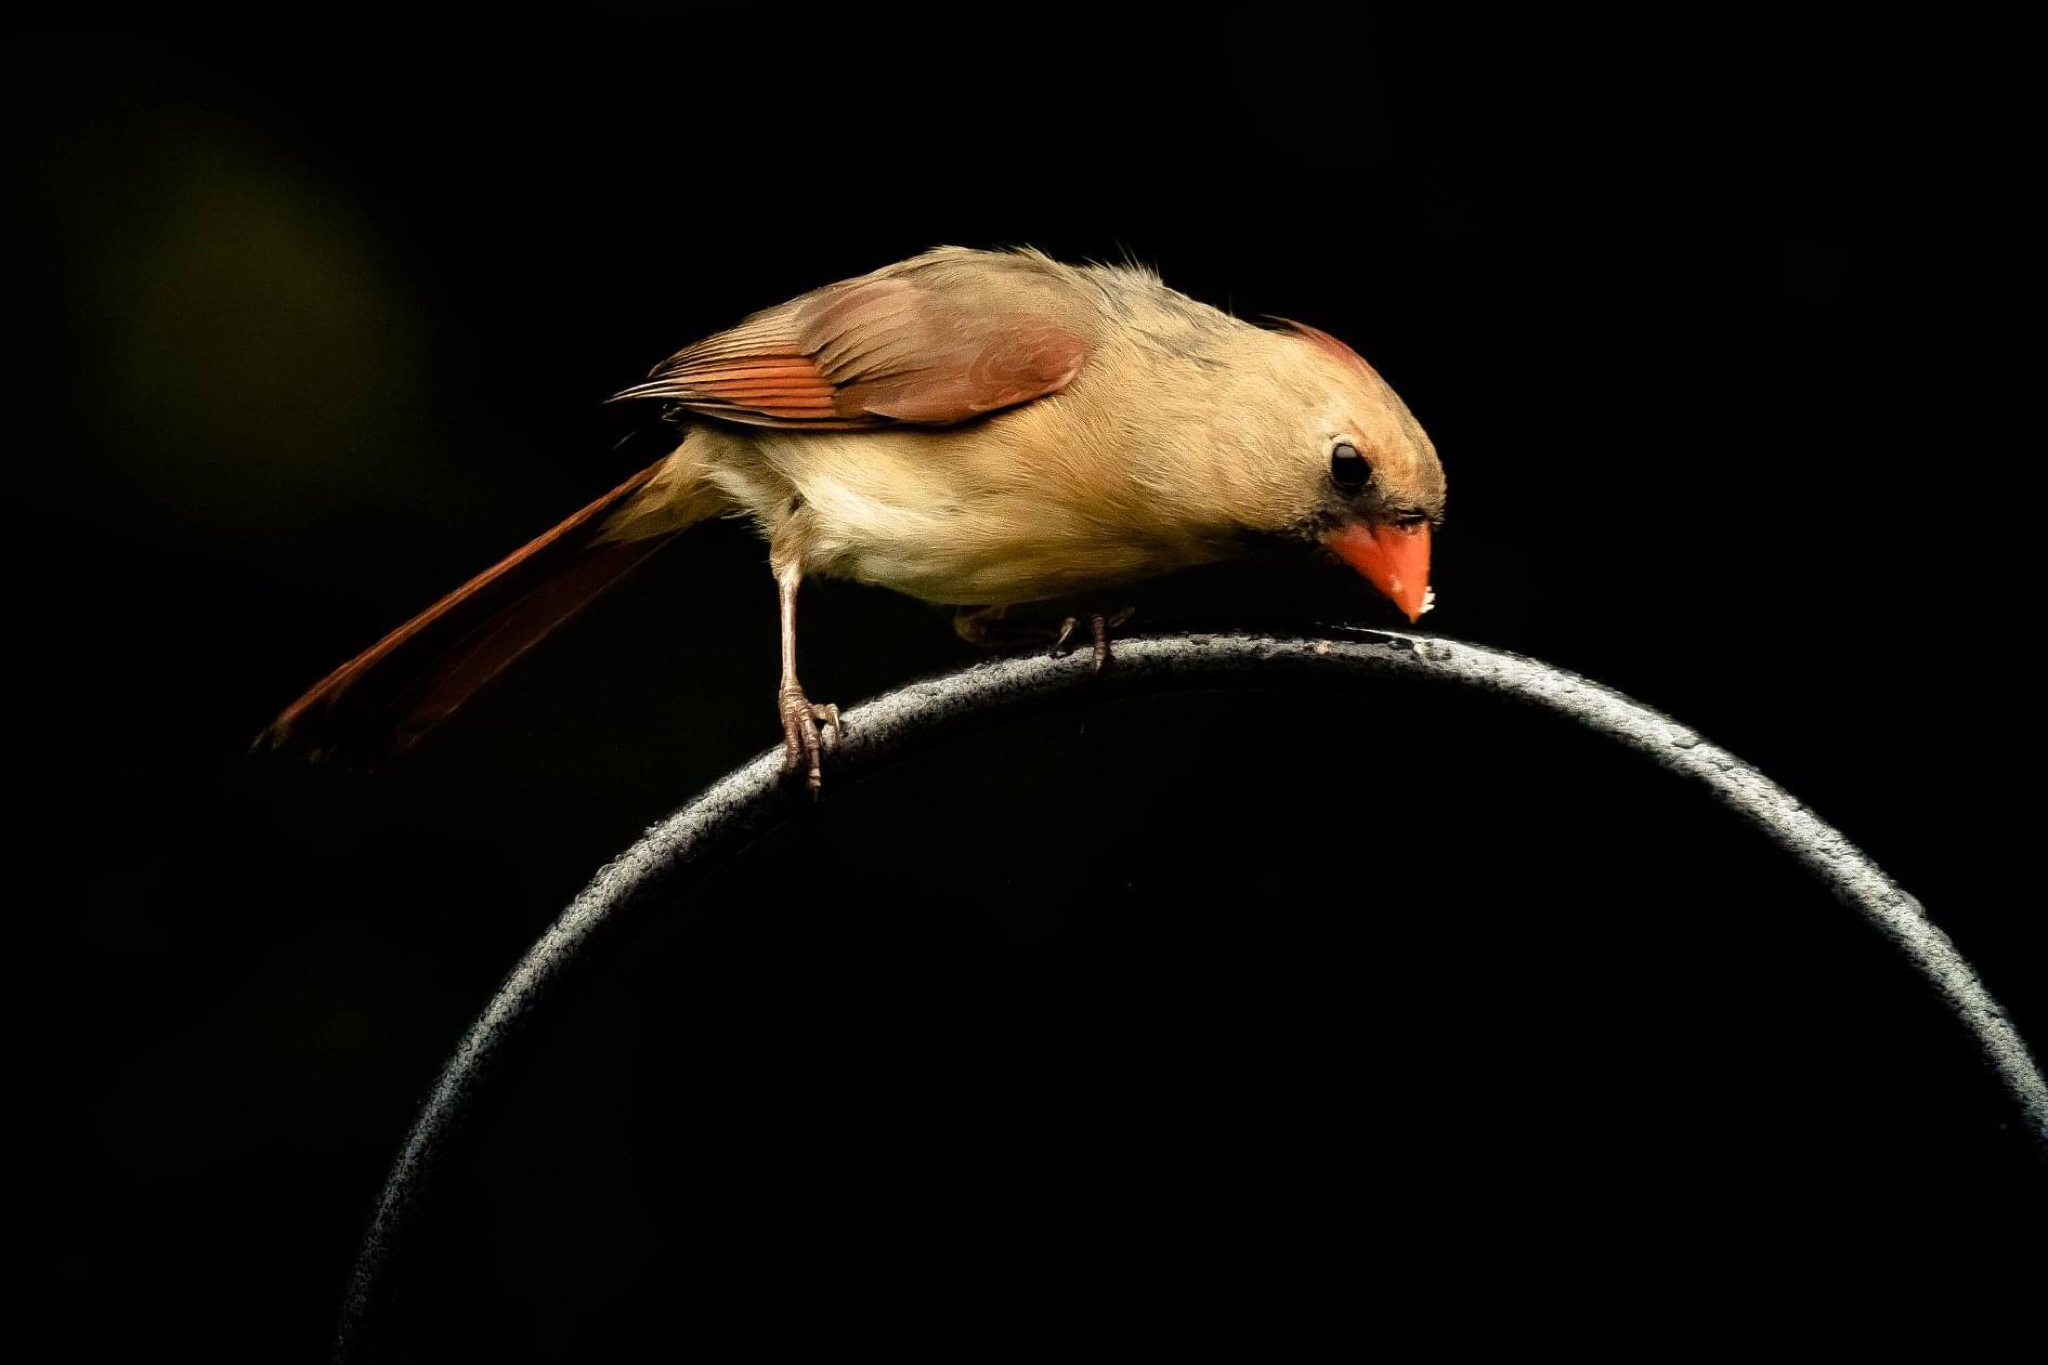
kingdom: Animalia
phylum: Chordata
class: Aves
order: Passeriformes
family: Cardinalidae
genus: Cardinalis
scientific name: Cardinalis cardinalis
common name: Northern cardinal
